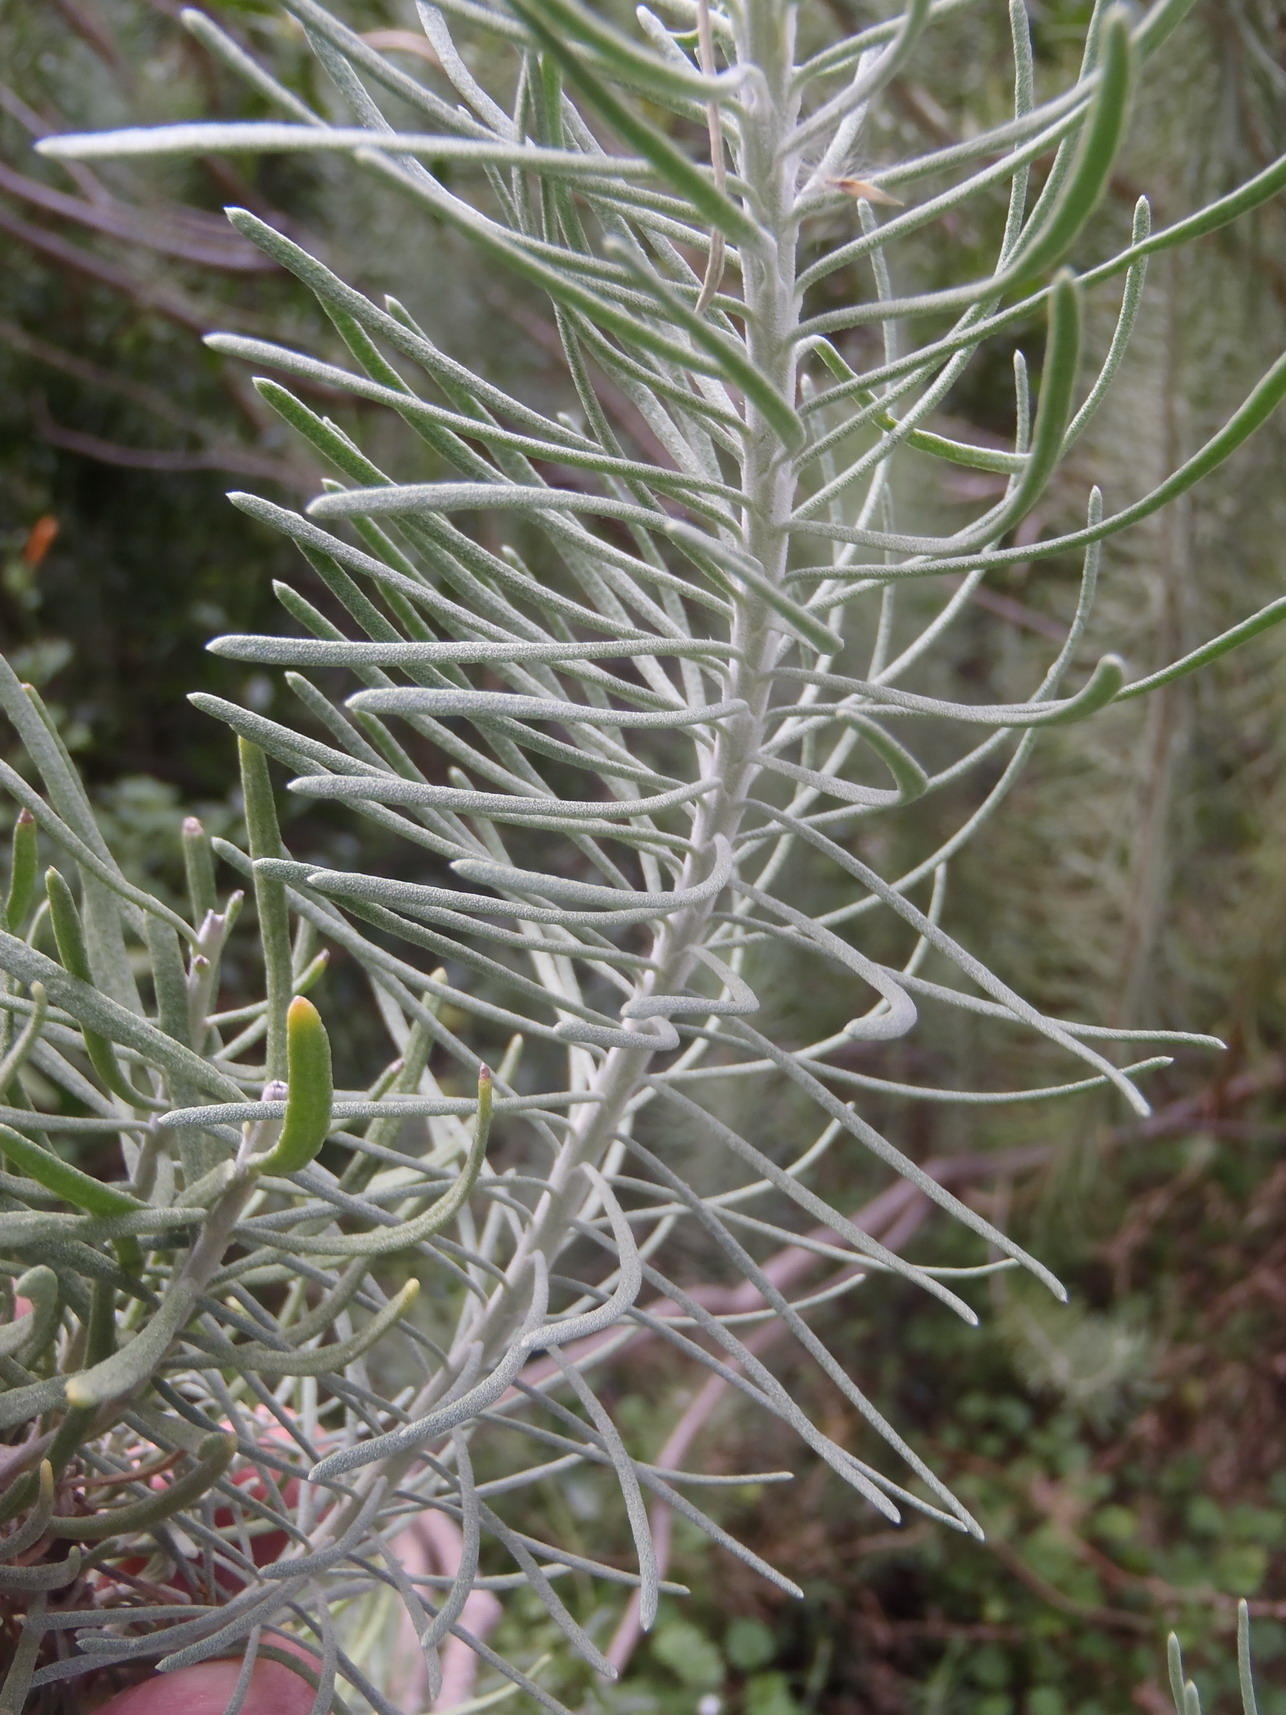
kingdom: Plantae
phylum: Tracheophyta
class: Magnoliopsida
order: Asterales
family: Asteraceae
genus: Athanasia
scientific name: Athanasia tomentosa
